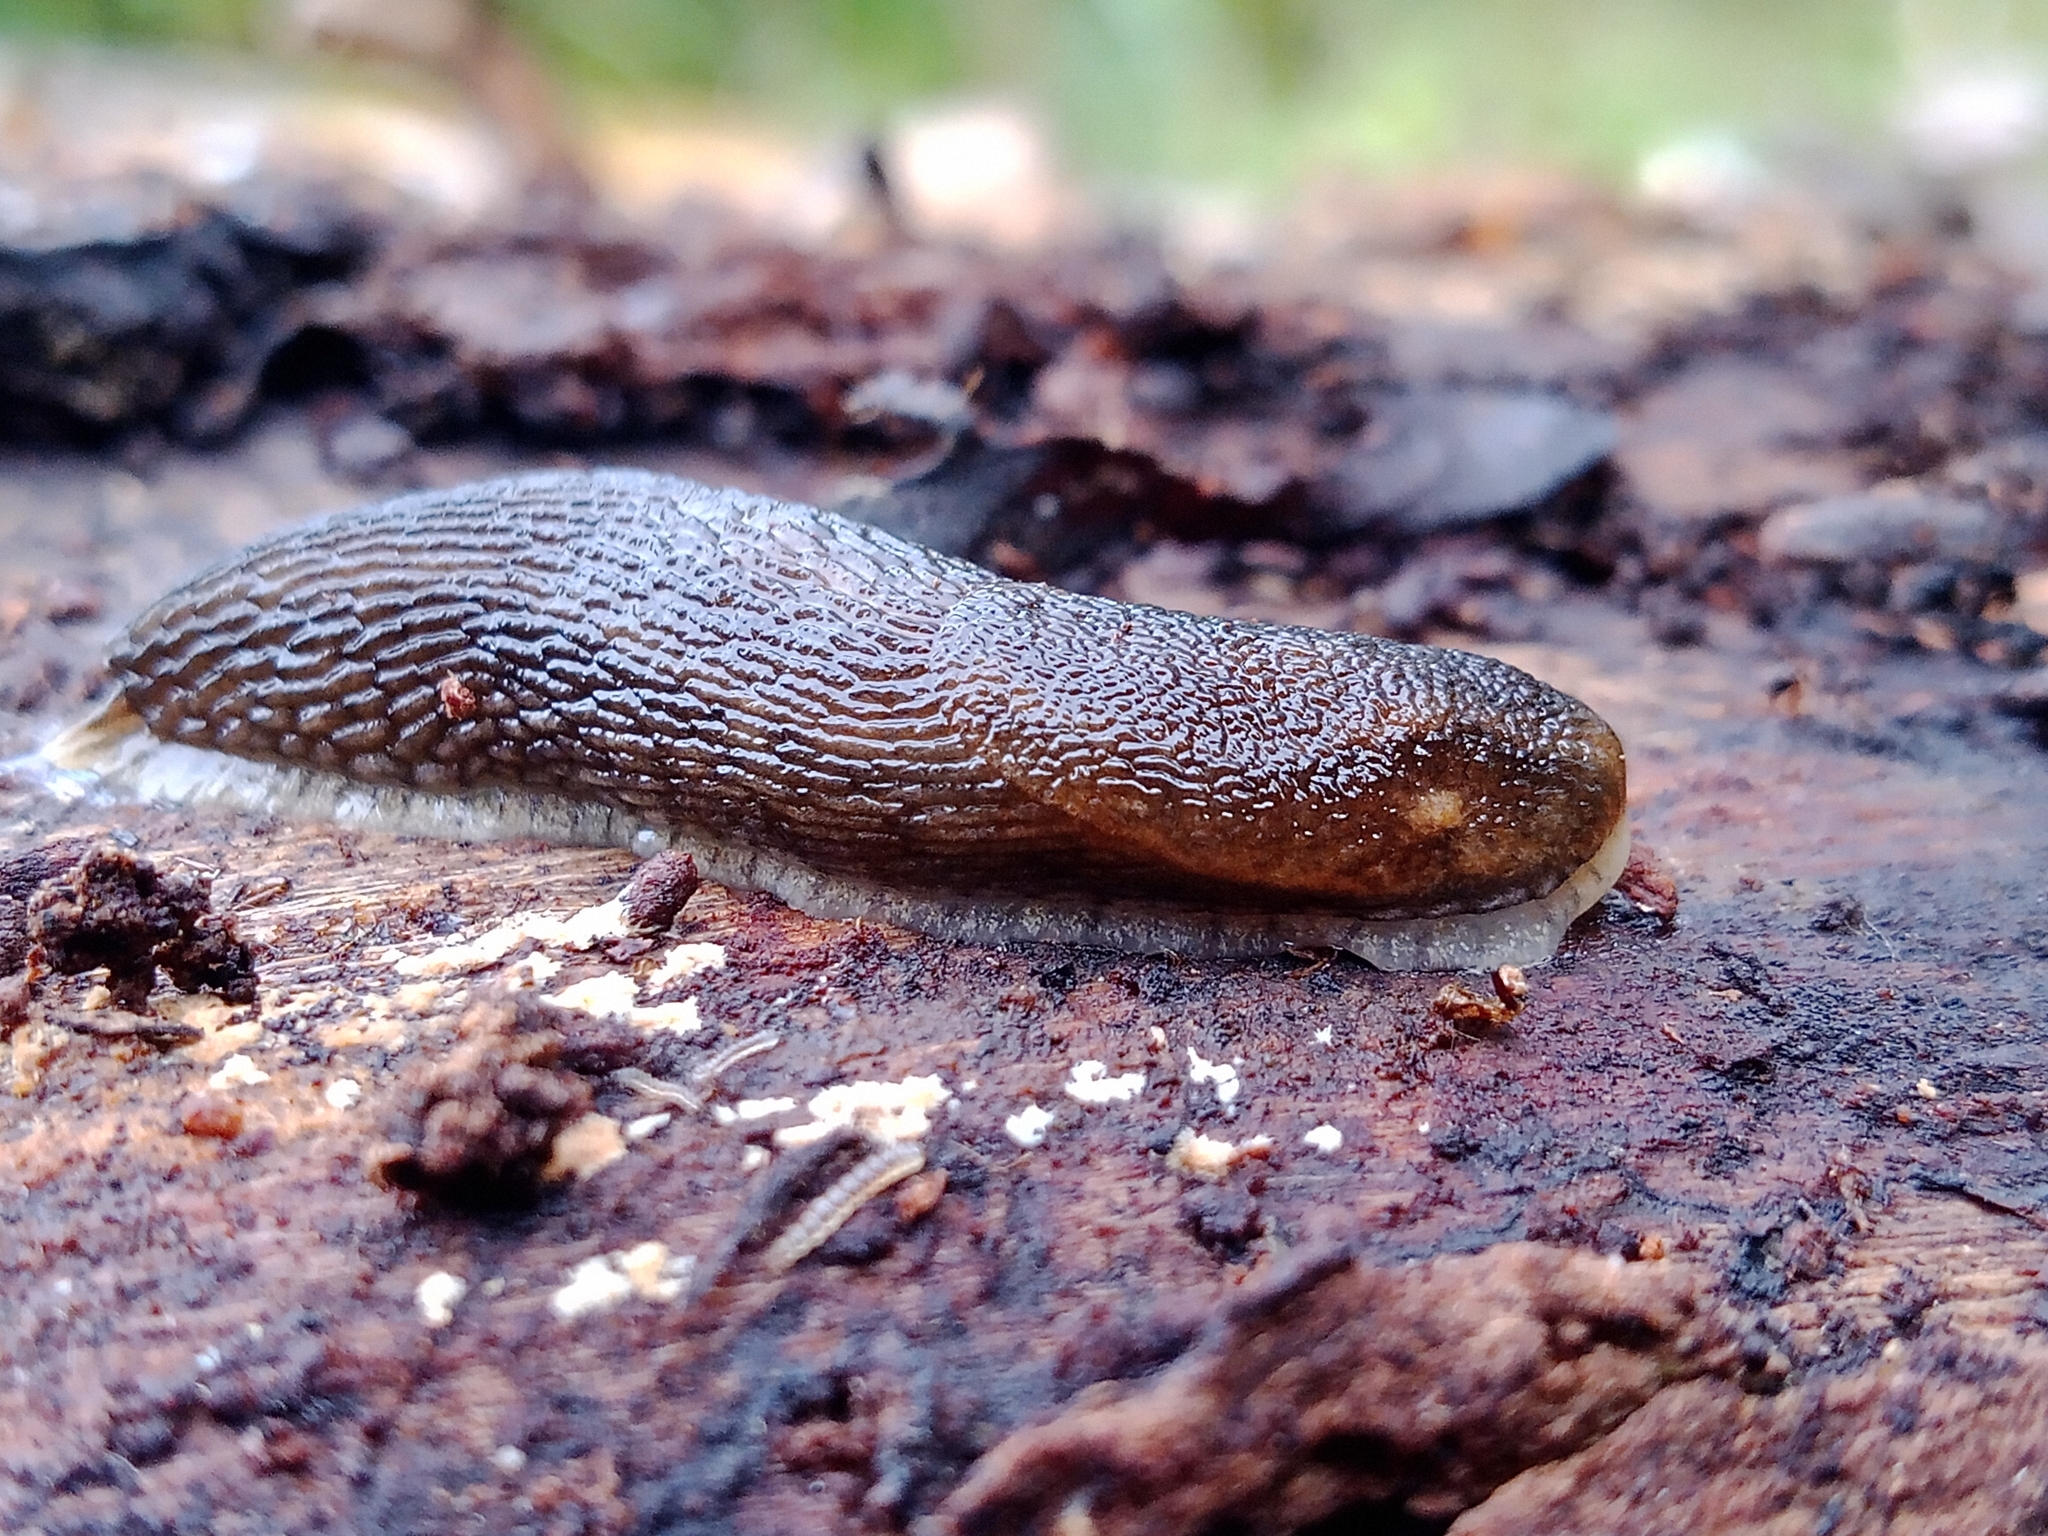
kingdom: Animalia
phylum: Mollusca
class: Gastropoda
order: Stylommatophora
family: Arionidae
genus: Arion
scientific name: Arion fuscus
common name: Northern dusky slug
